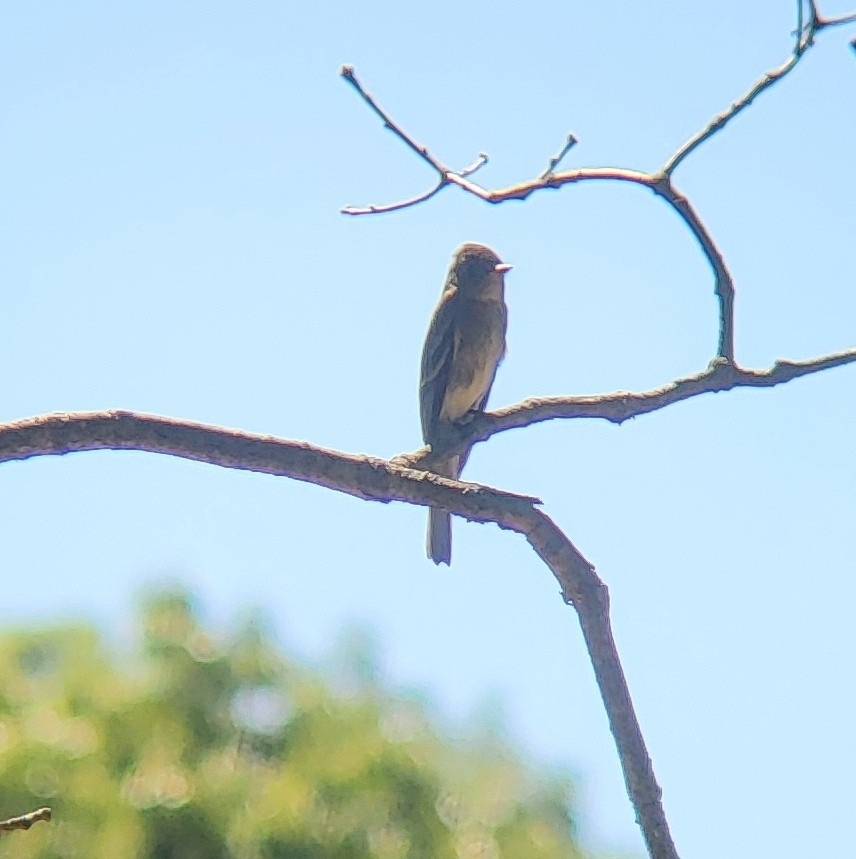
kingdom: Animalia
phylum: Chordata
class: Aves
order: Passeriformes
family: Tyrannidae
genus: Contopus
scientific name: Contopus virens
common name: Eastern wood-pewee
